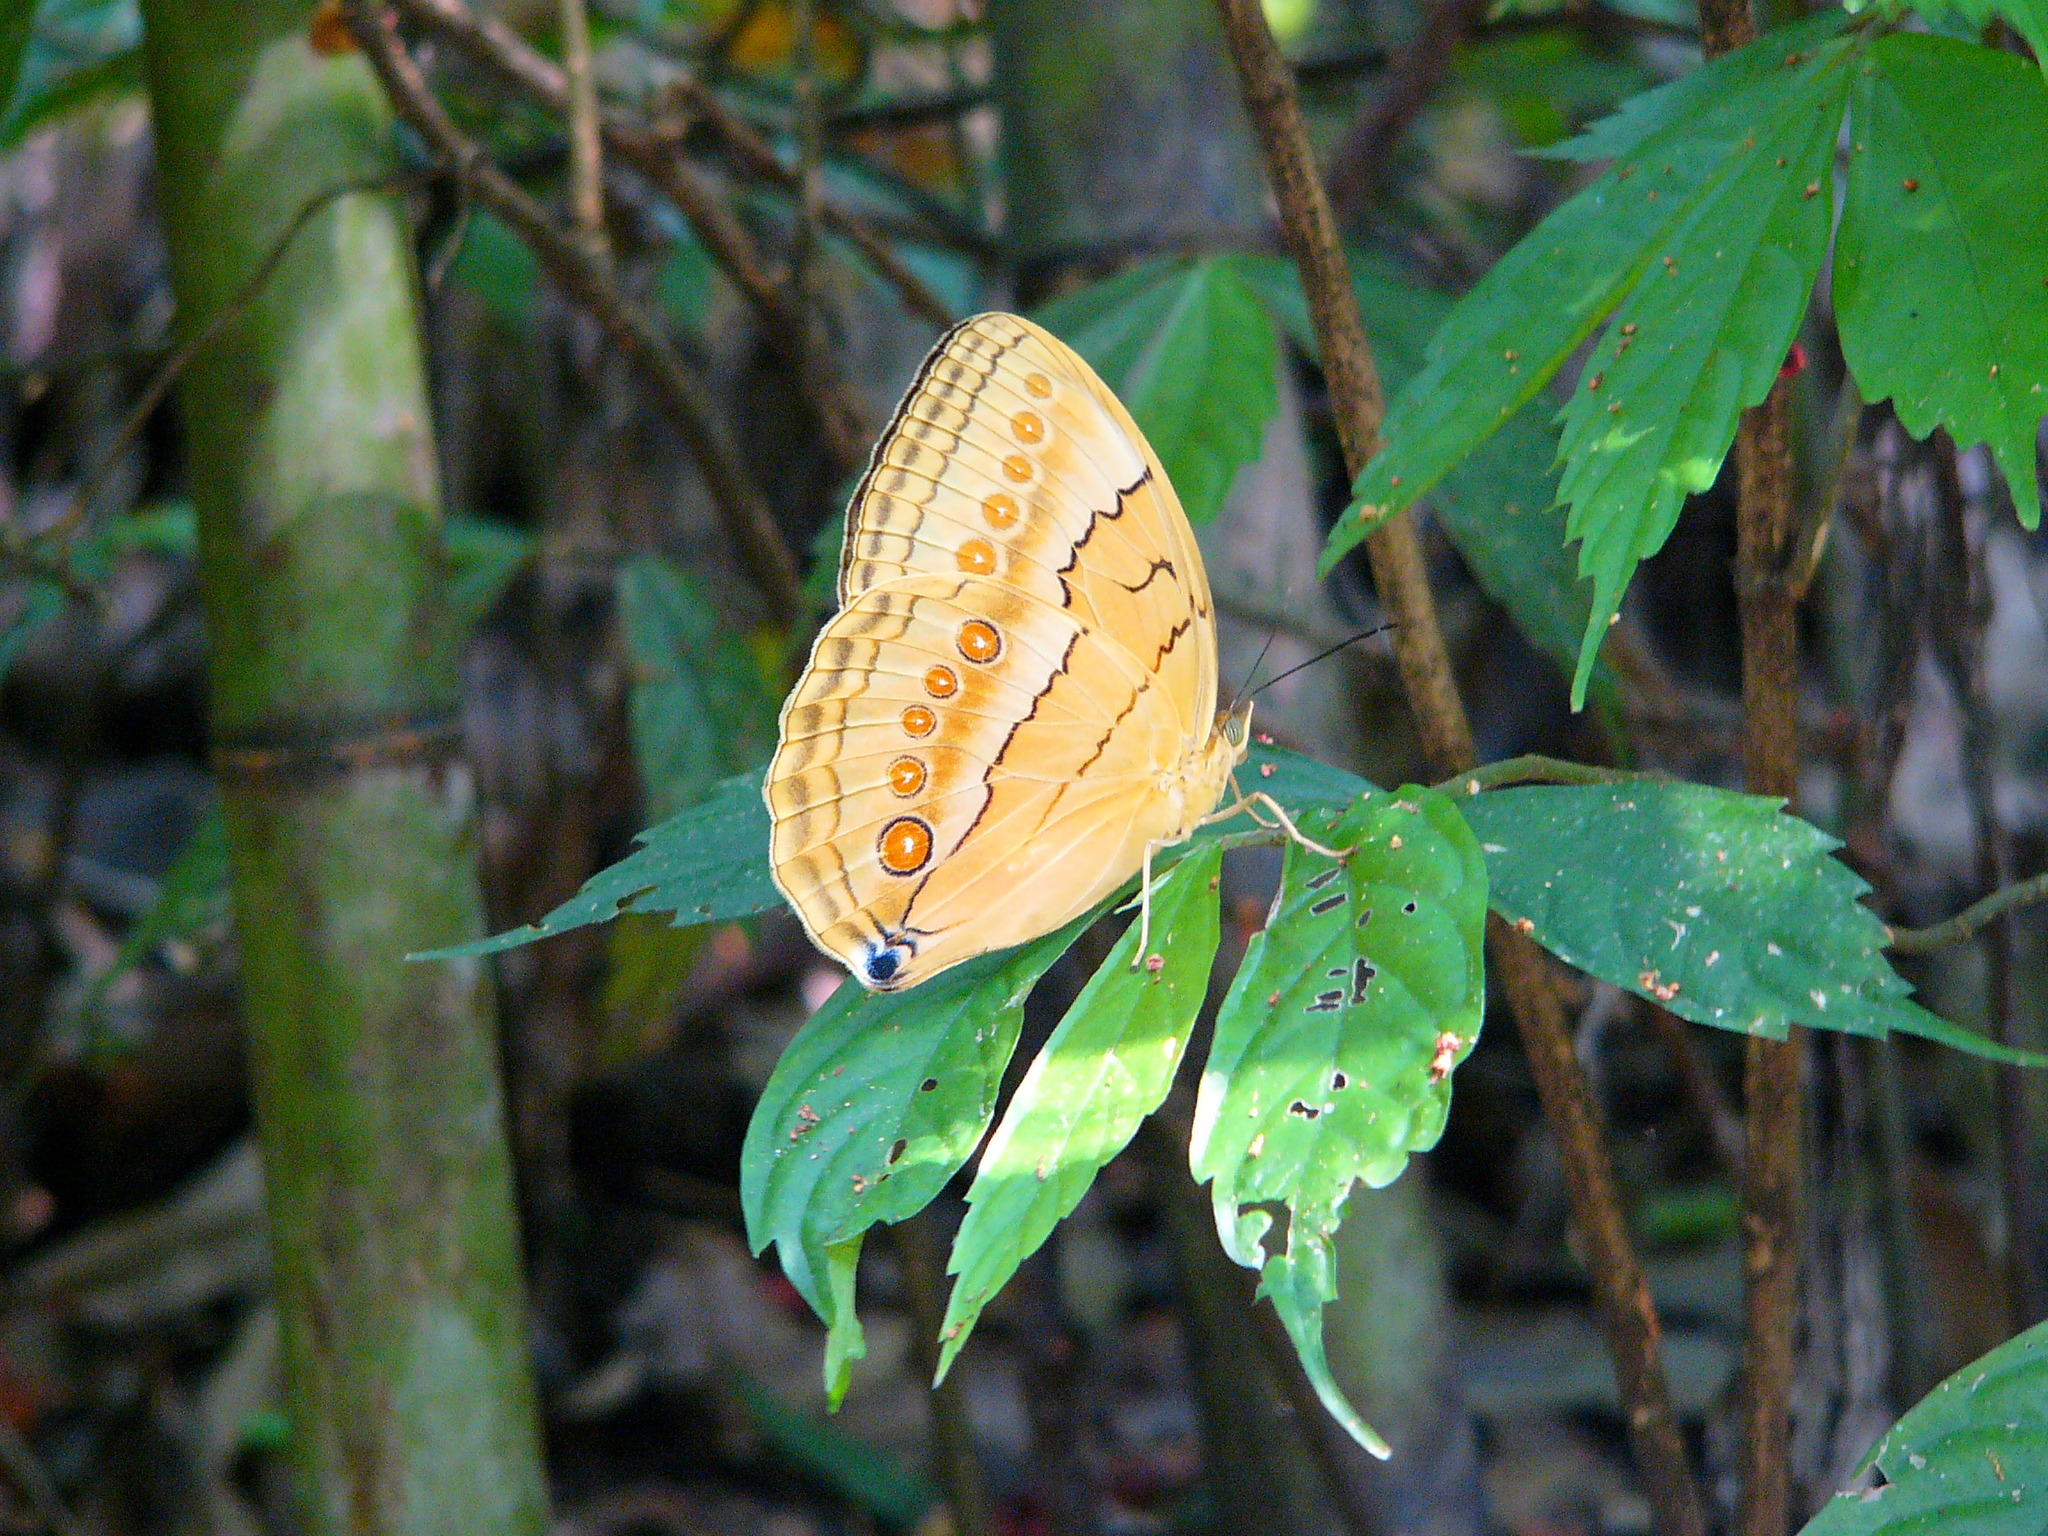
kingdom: Animalia
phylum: Arthropoda
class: Insecta
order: Lepidoptera
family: Nymphalidae
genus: Stichophthalma
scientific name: Stichophthalma howqua
